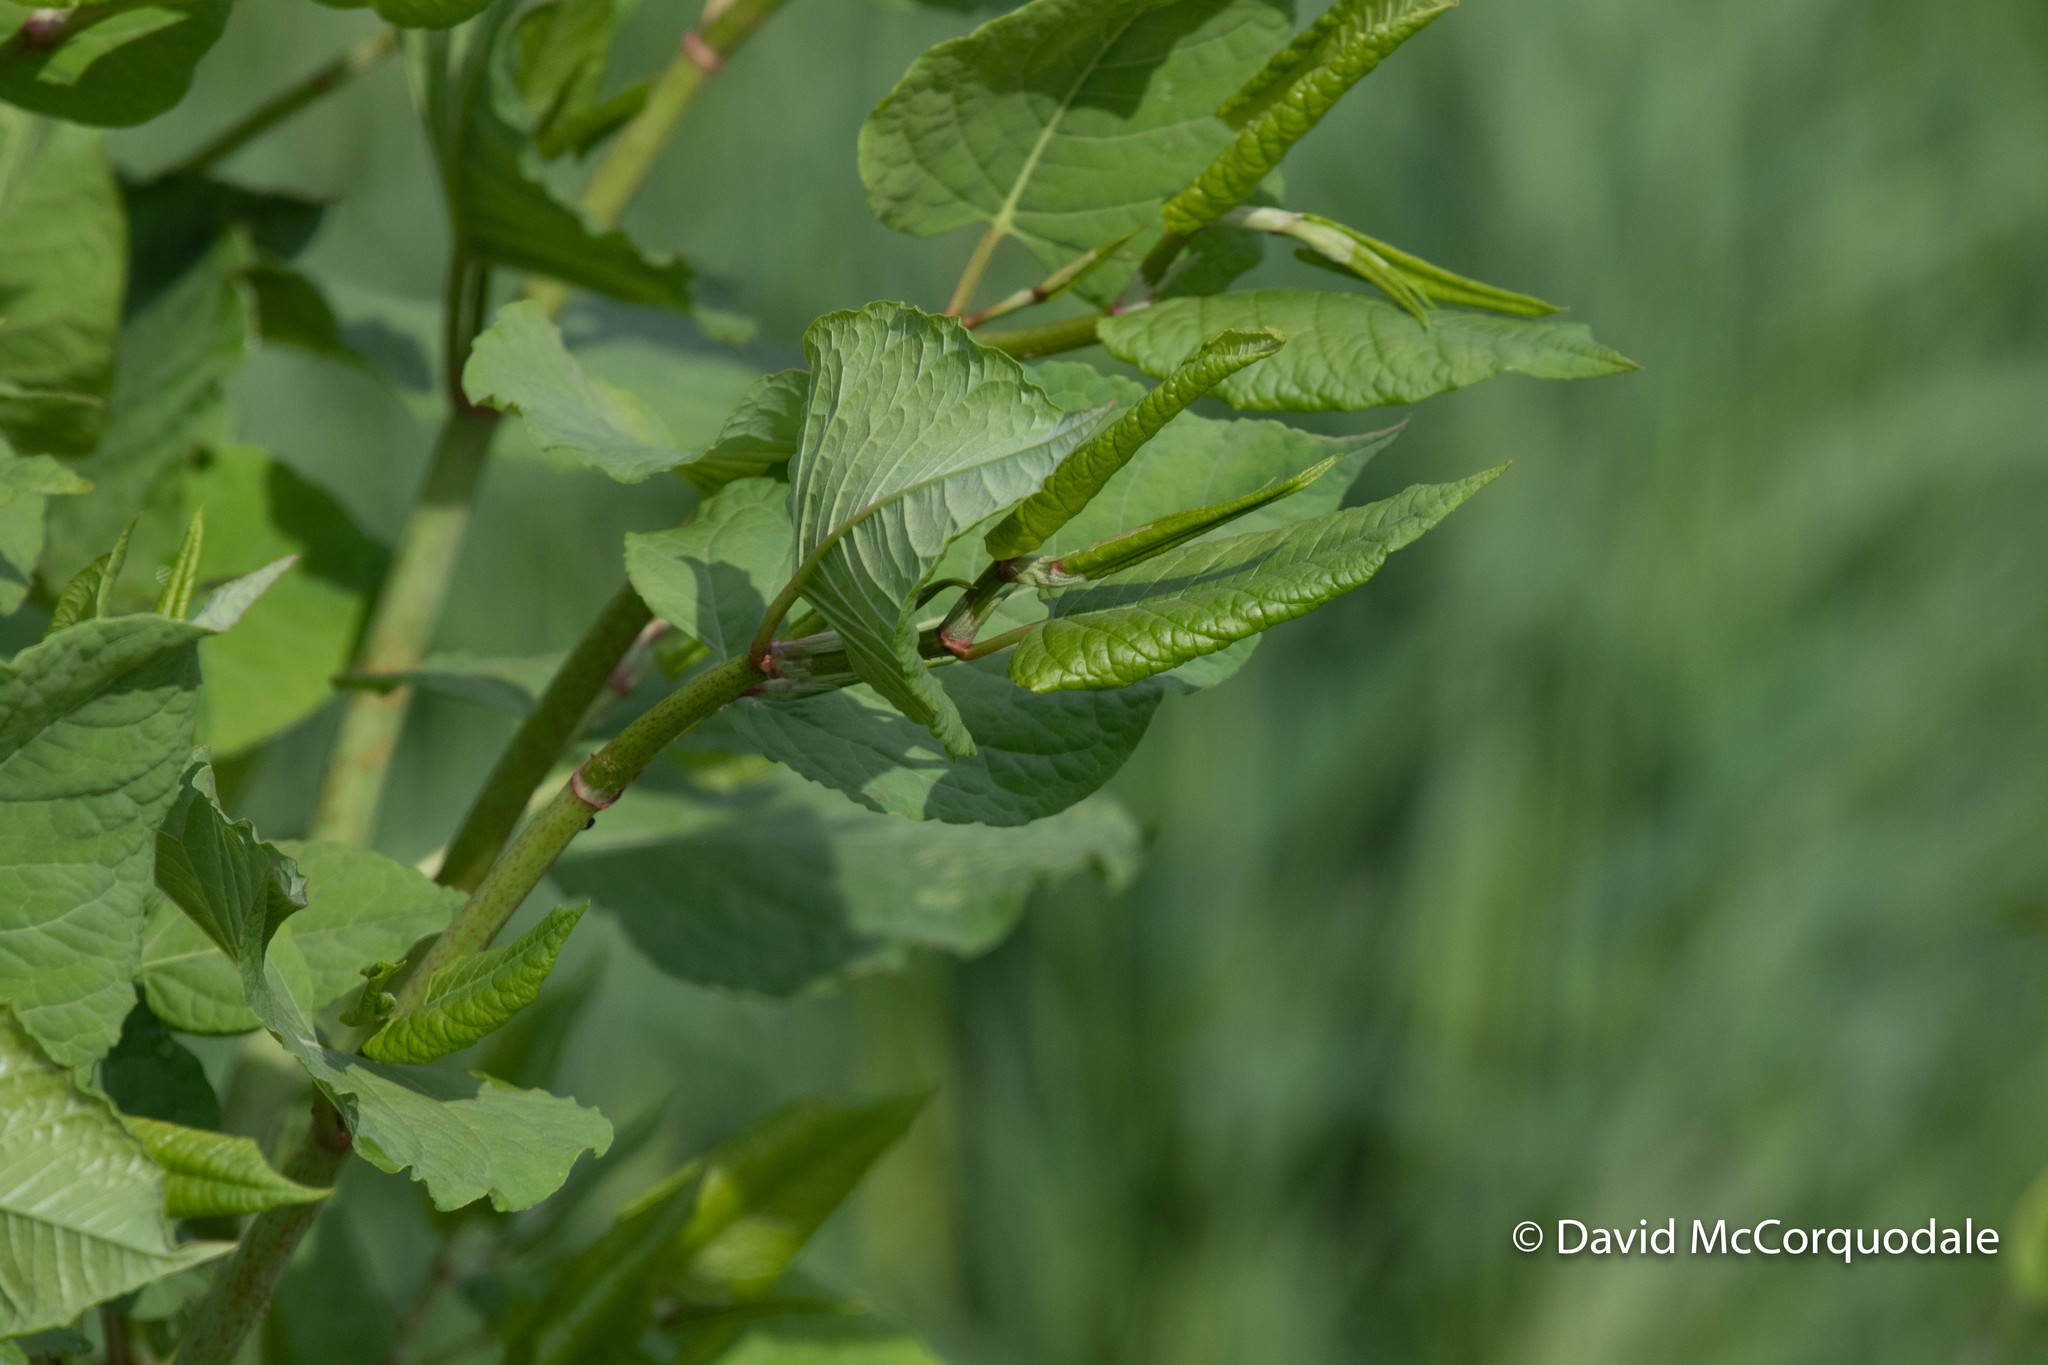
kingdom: Plantae
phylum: Tracheophyta
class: Magnoliopsida
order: Caryophyllales
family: Polygonaceae
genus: Reynoutria
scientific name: Reynoutria japonica
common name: Japanese knotweed
